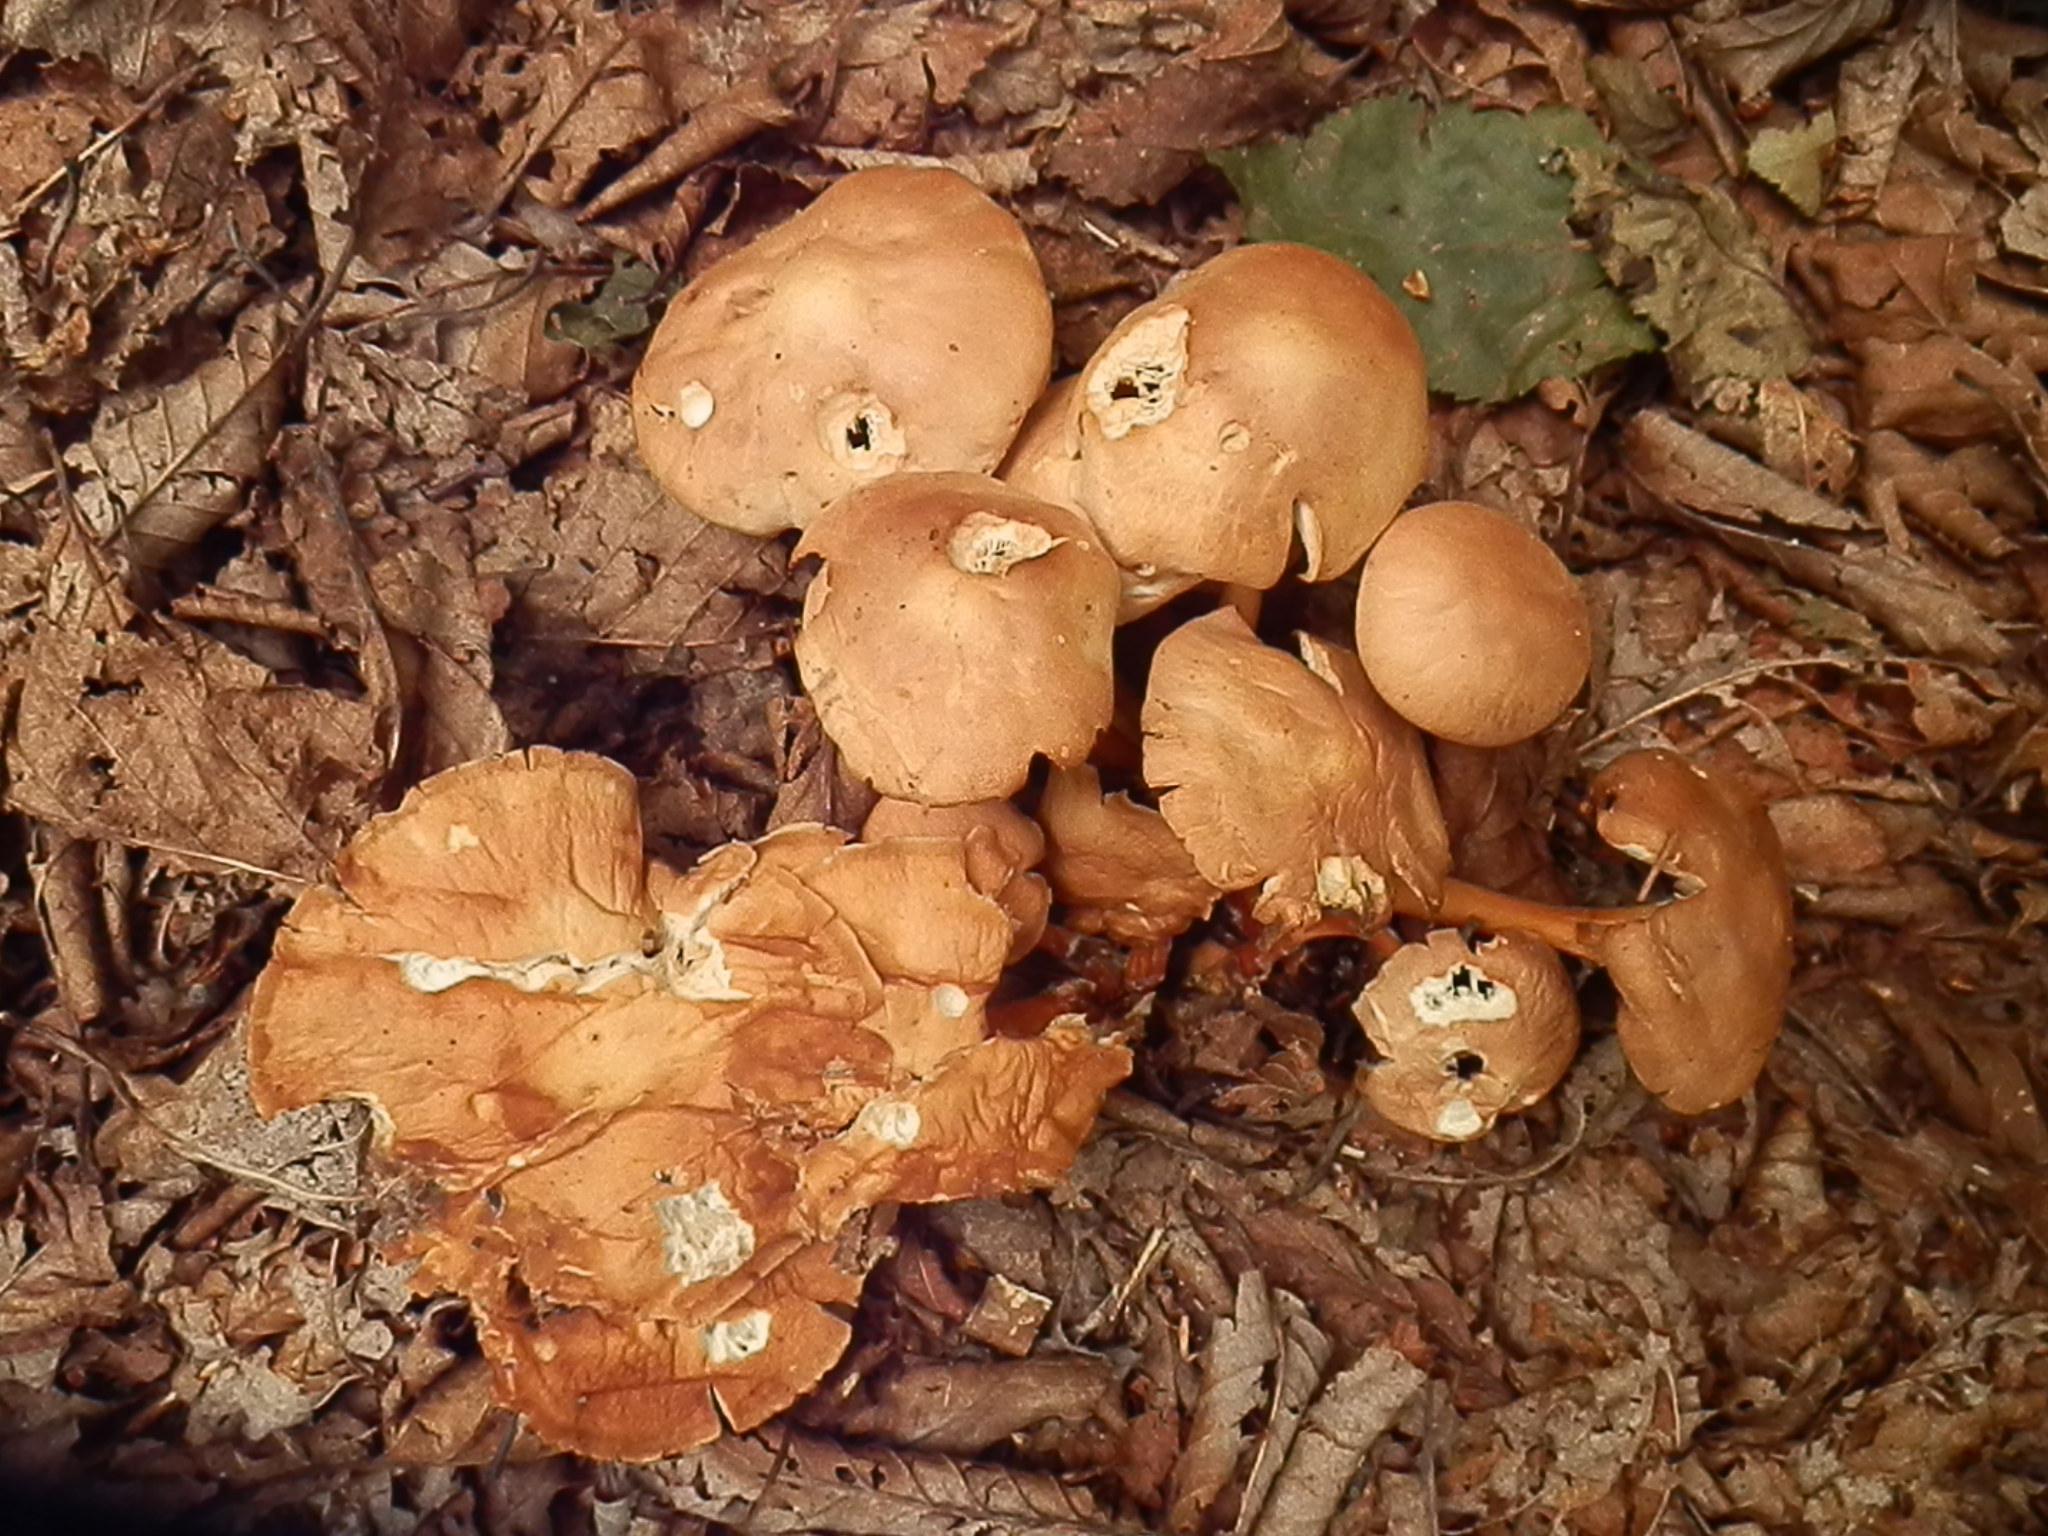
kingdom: Fungi
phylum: Basidiomycota
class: Agaricomycetes
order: Agaricales
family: Omphalotaceae
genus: Gymnopus
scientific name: Gymnopus dryophilus
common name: Penny top
